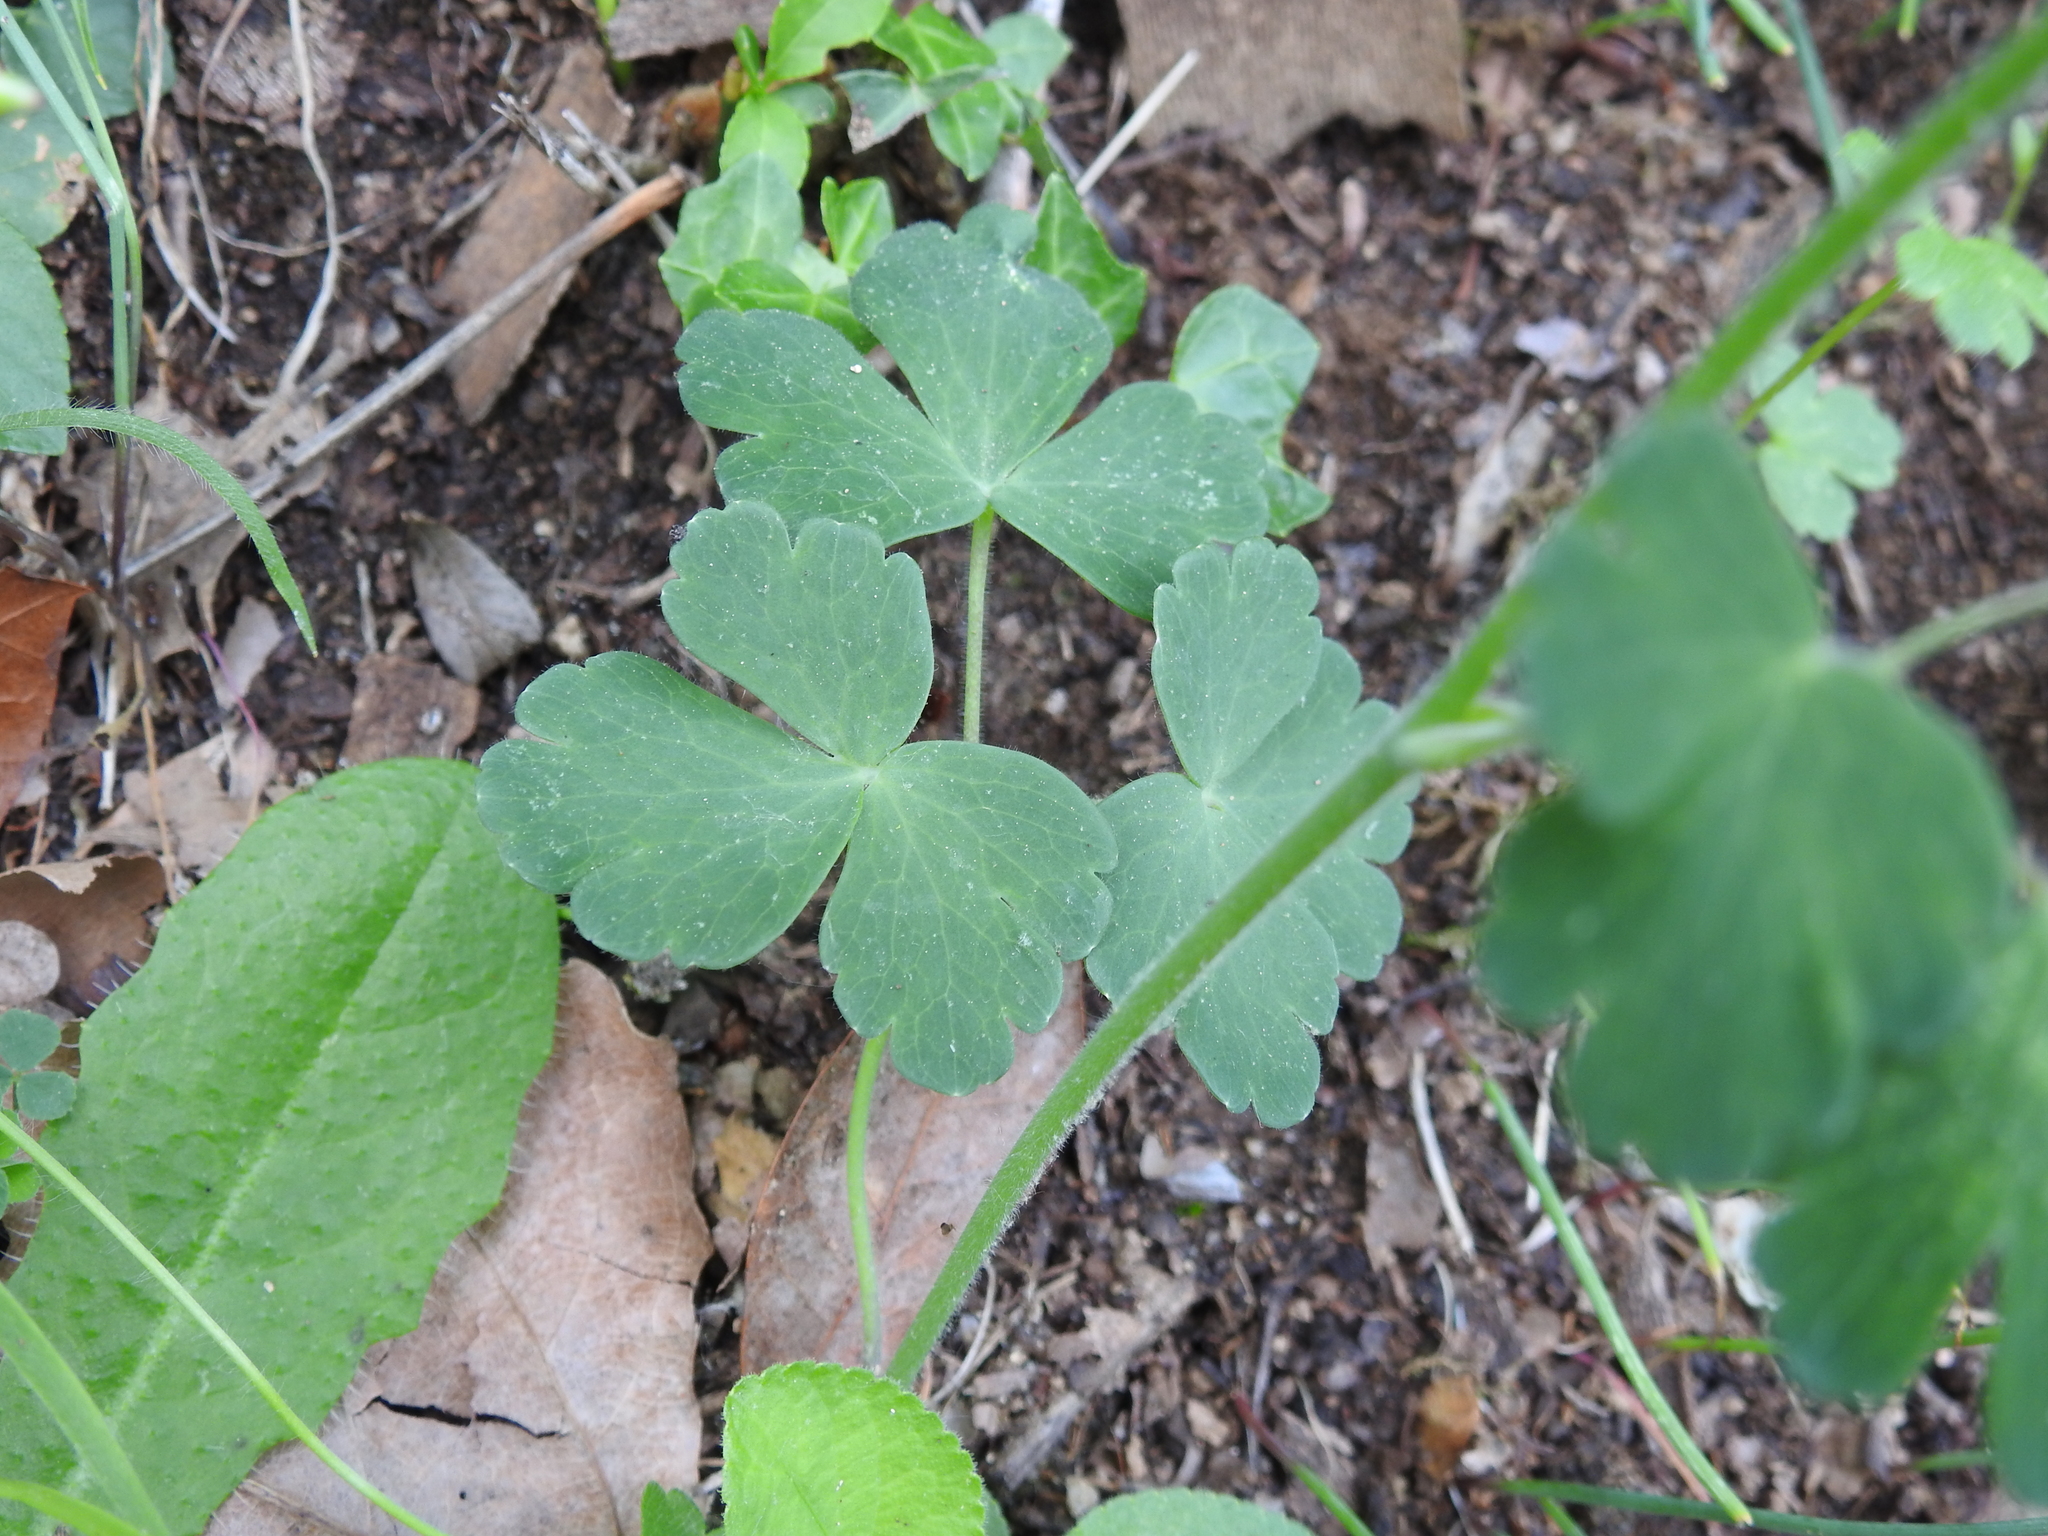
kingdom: Plantae
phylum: Tracheophyta
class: Magnoliopsida
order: Ranunculales
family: Ranunculaceae
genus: Aquilegia
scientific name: Aquilegia vulgaris
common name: Columbine
